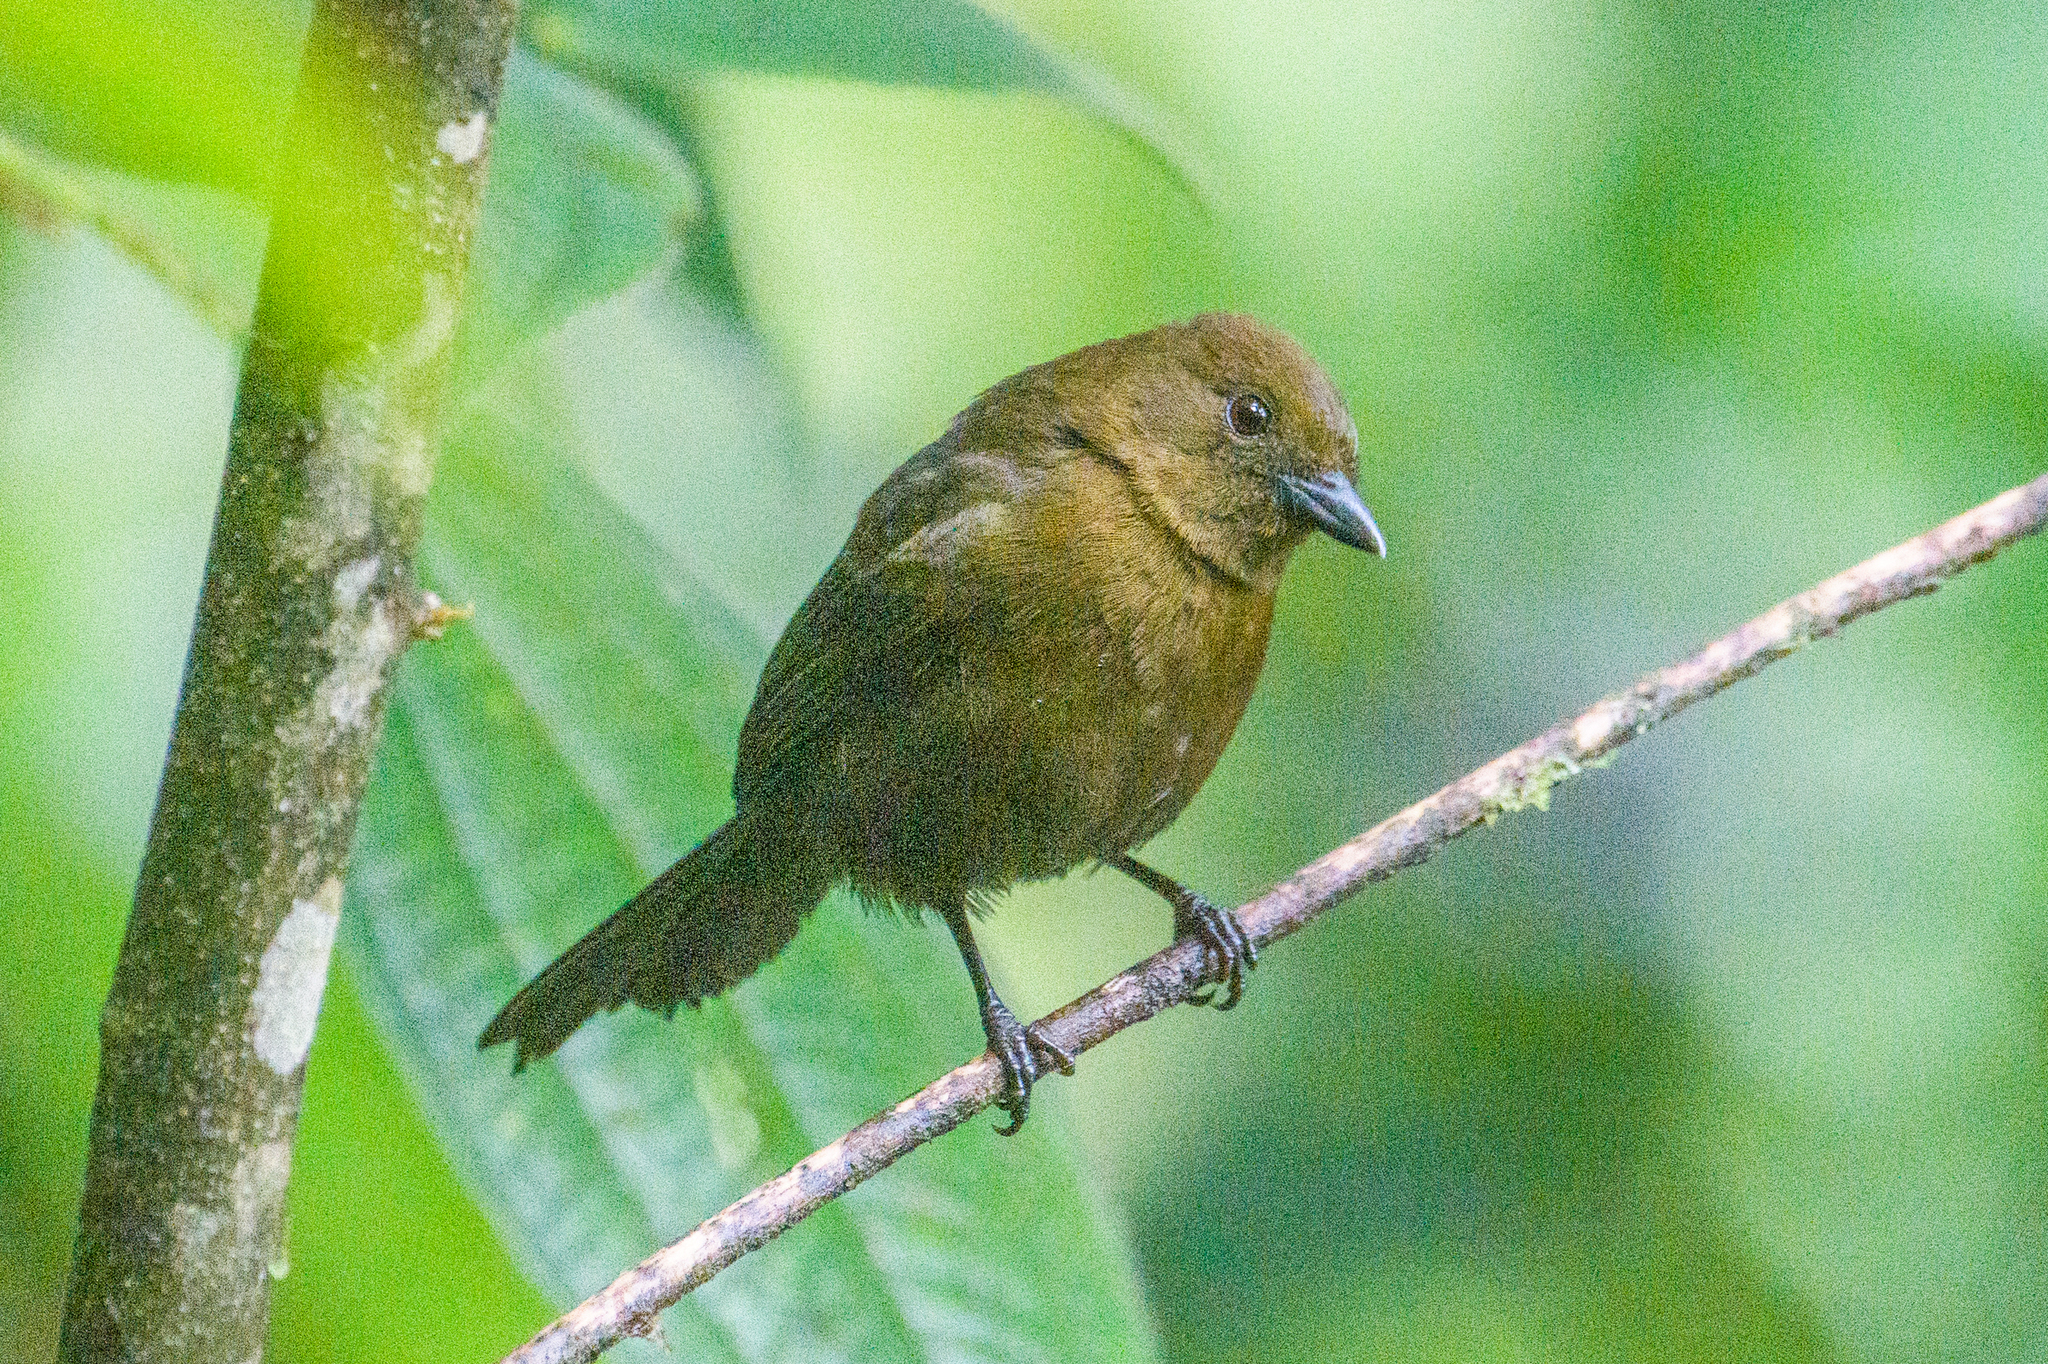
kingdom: Animalia
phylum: Chordata
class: Aves
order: Passeriformes
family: Thraupidae
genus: Tachyphonus
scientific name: Tachyphonus delatrii
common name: Tawny-crested tanager
